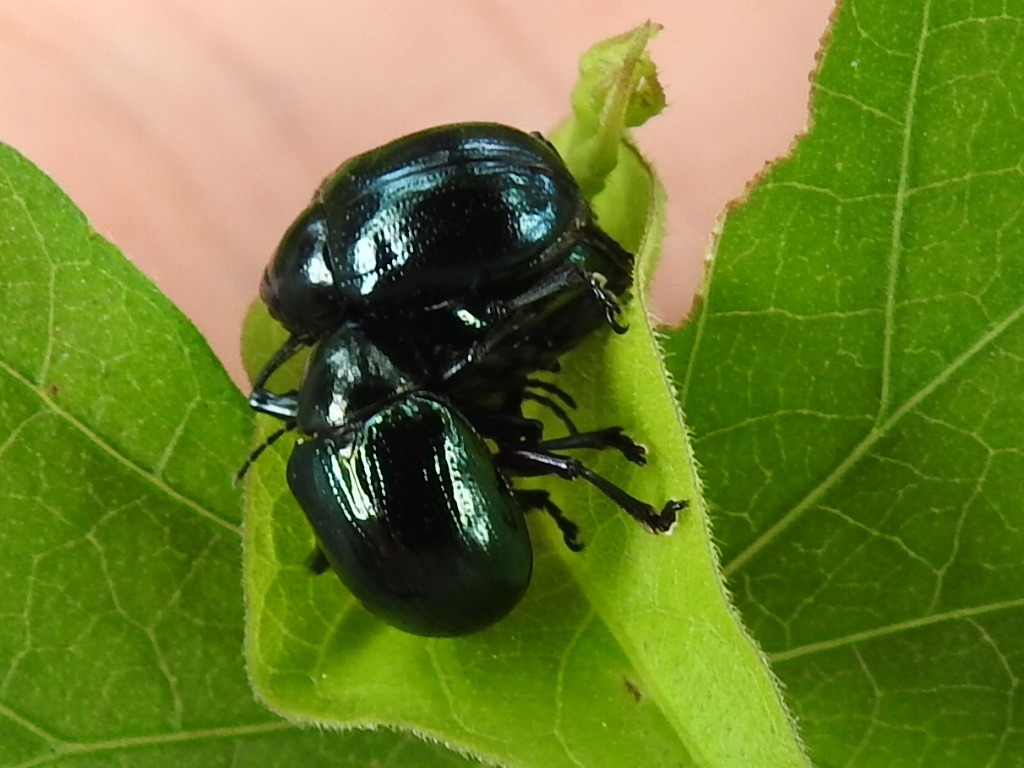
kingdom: Animalia
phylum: Arthropoda
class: Insecta
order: Coleoptera
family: Chrysomelidae
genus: Typophorus
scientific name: Typophorus nigritus
